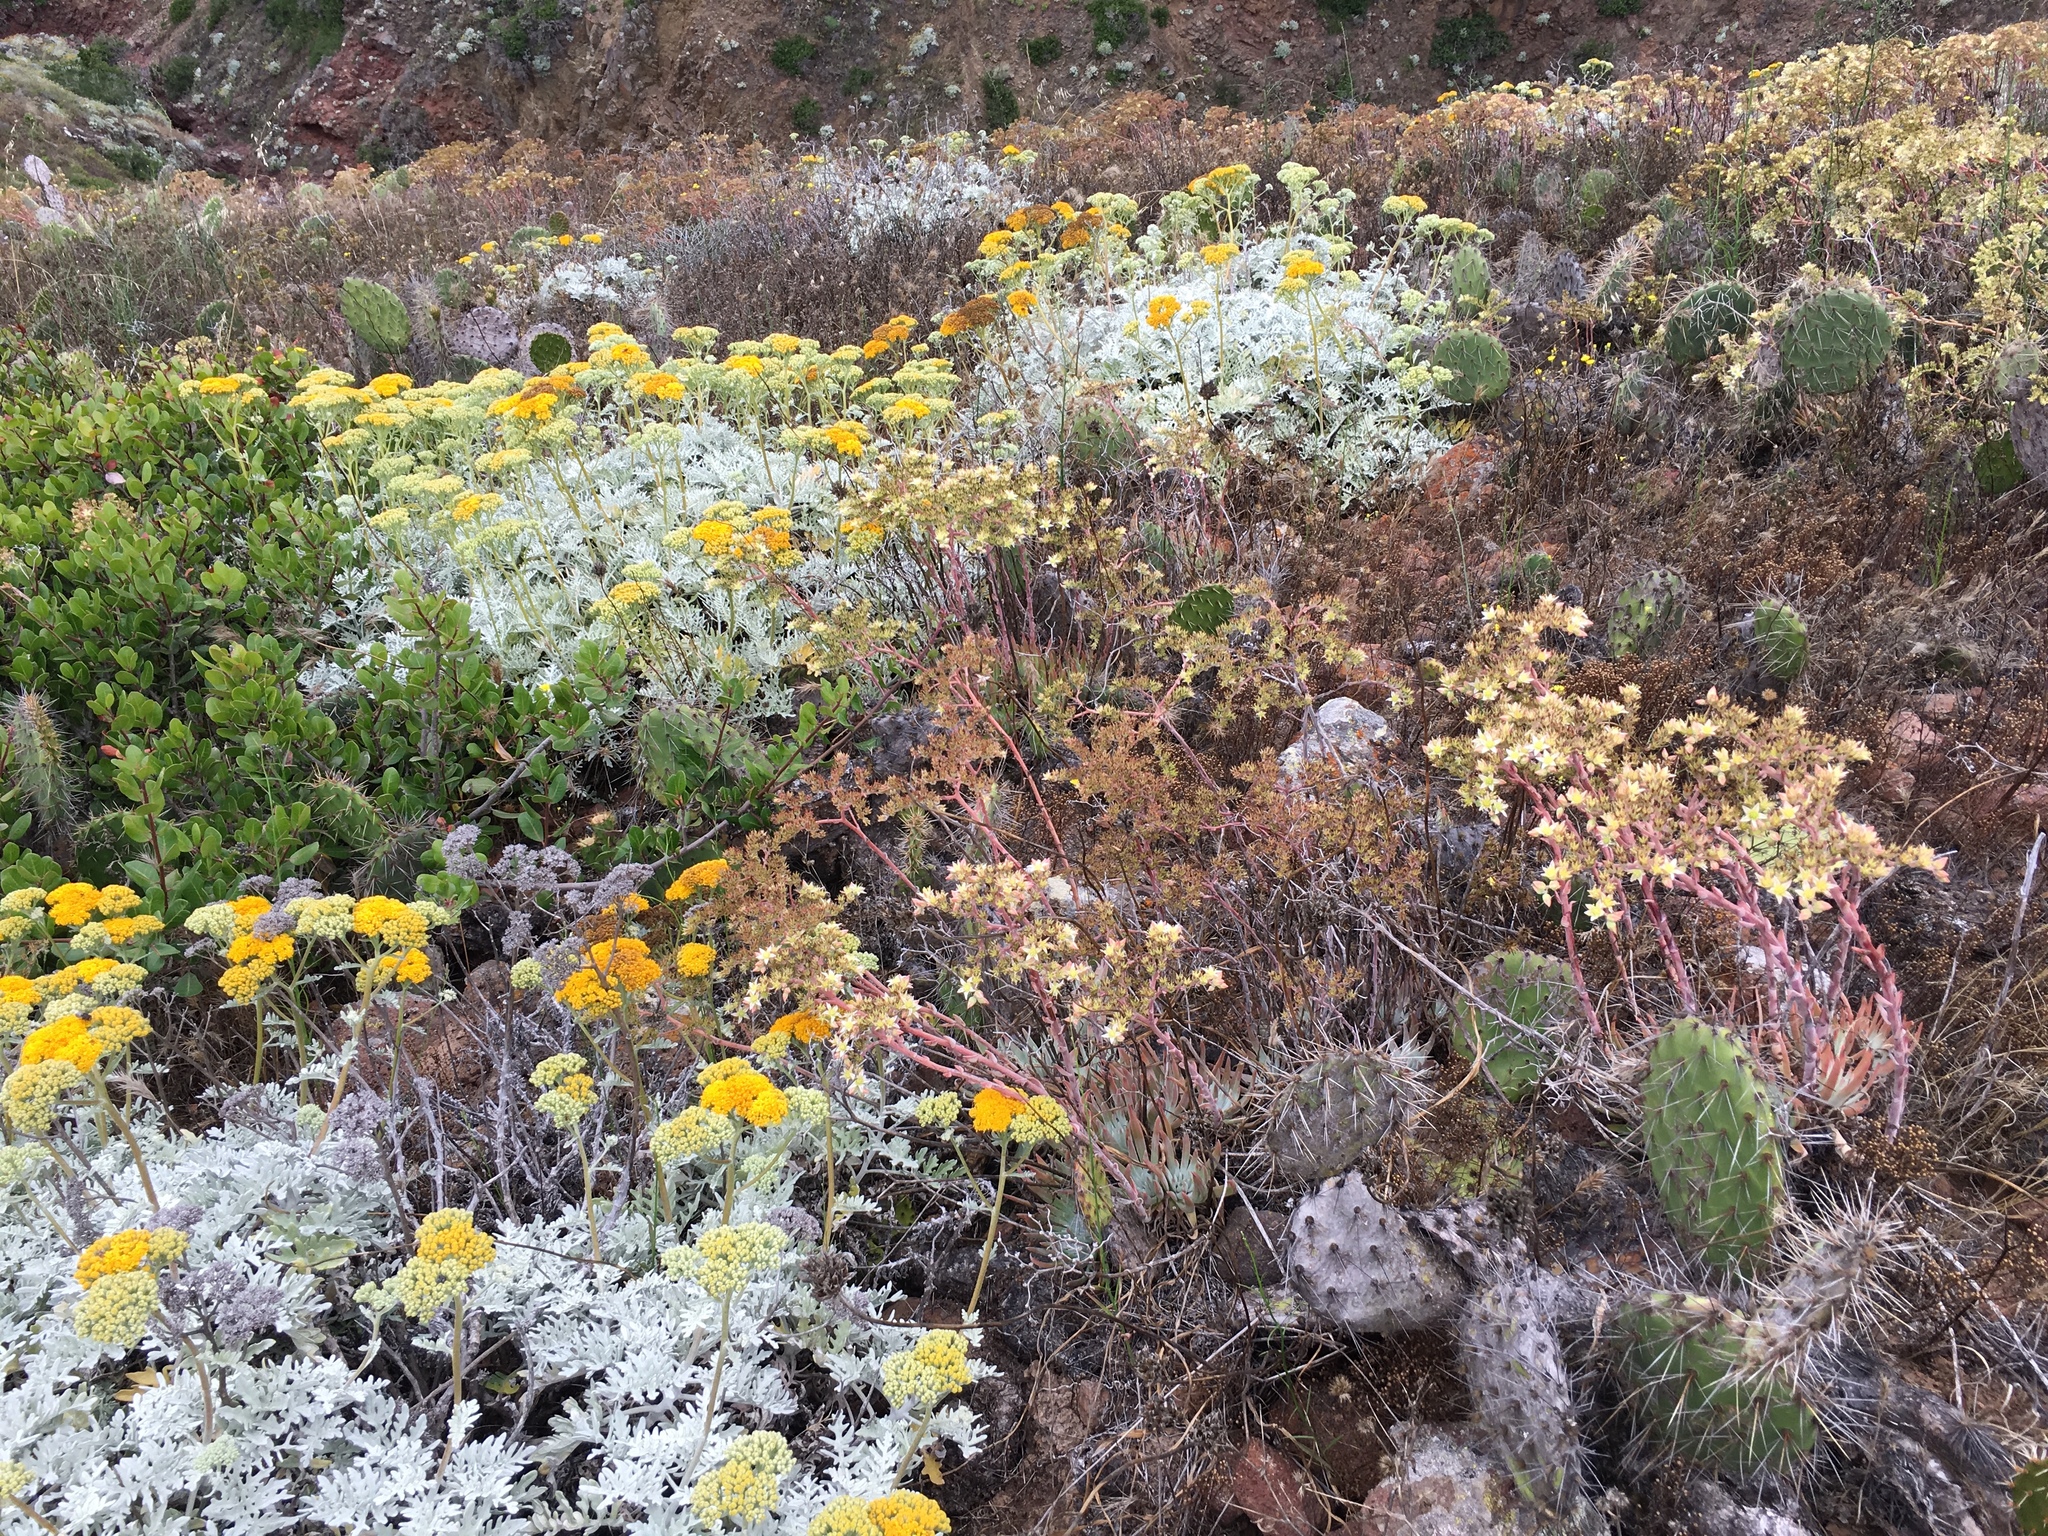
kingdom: Plantae
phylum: Tracheophyta
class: Magnoliopsida
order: Saxifragales
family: Crassulaceae
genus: Dudleya
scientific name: Dudleya virens
